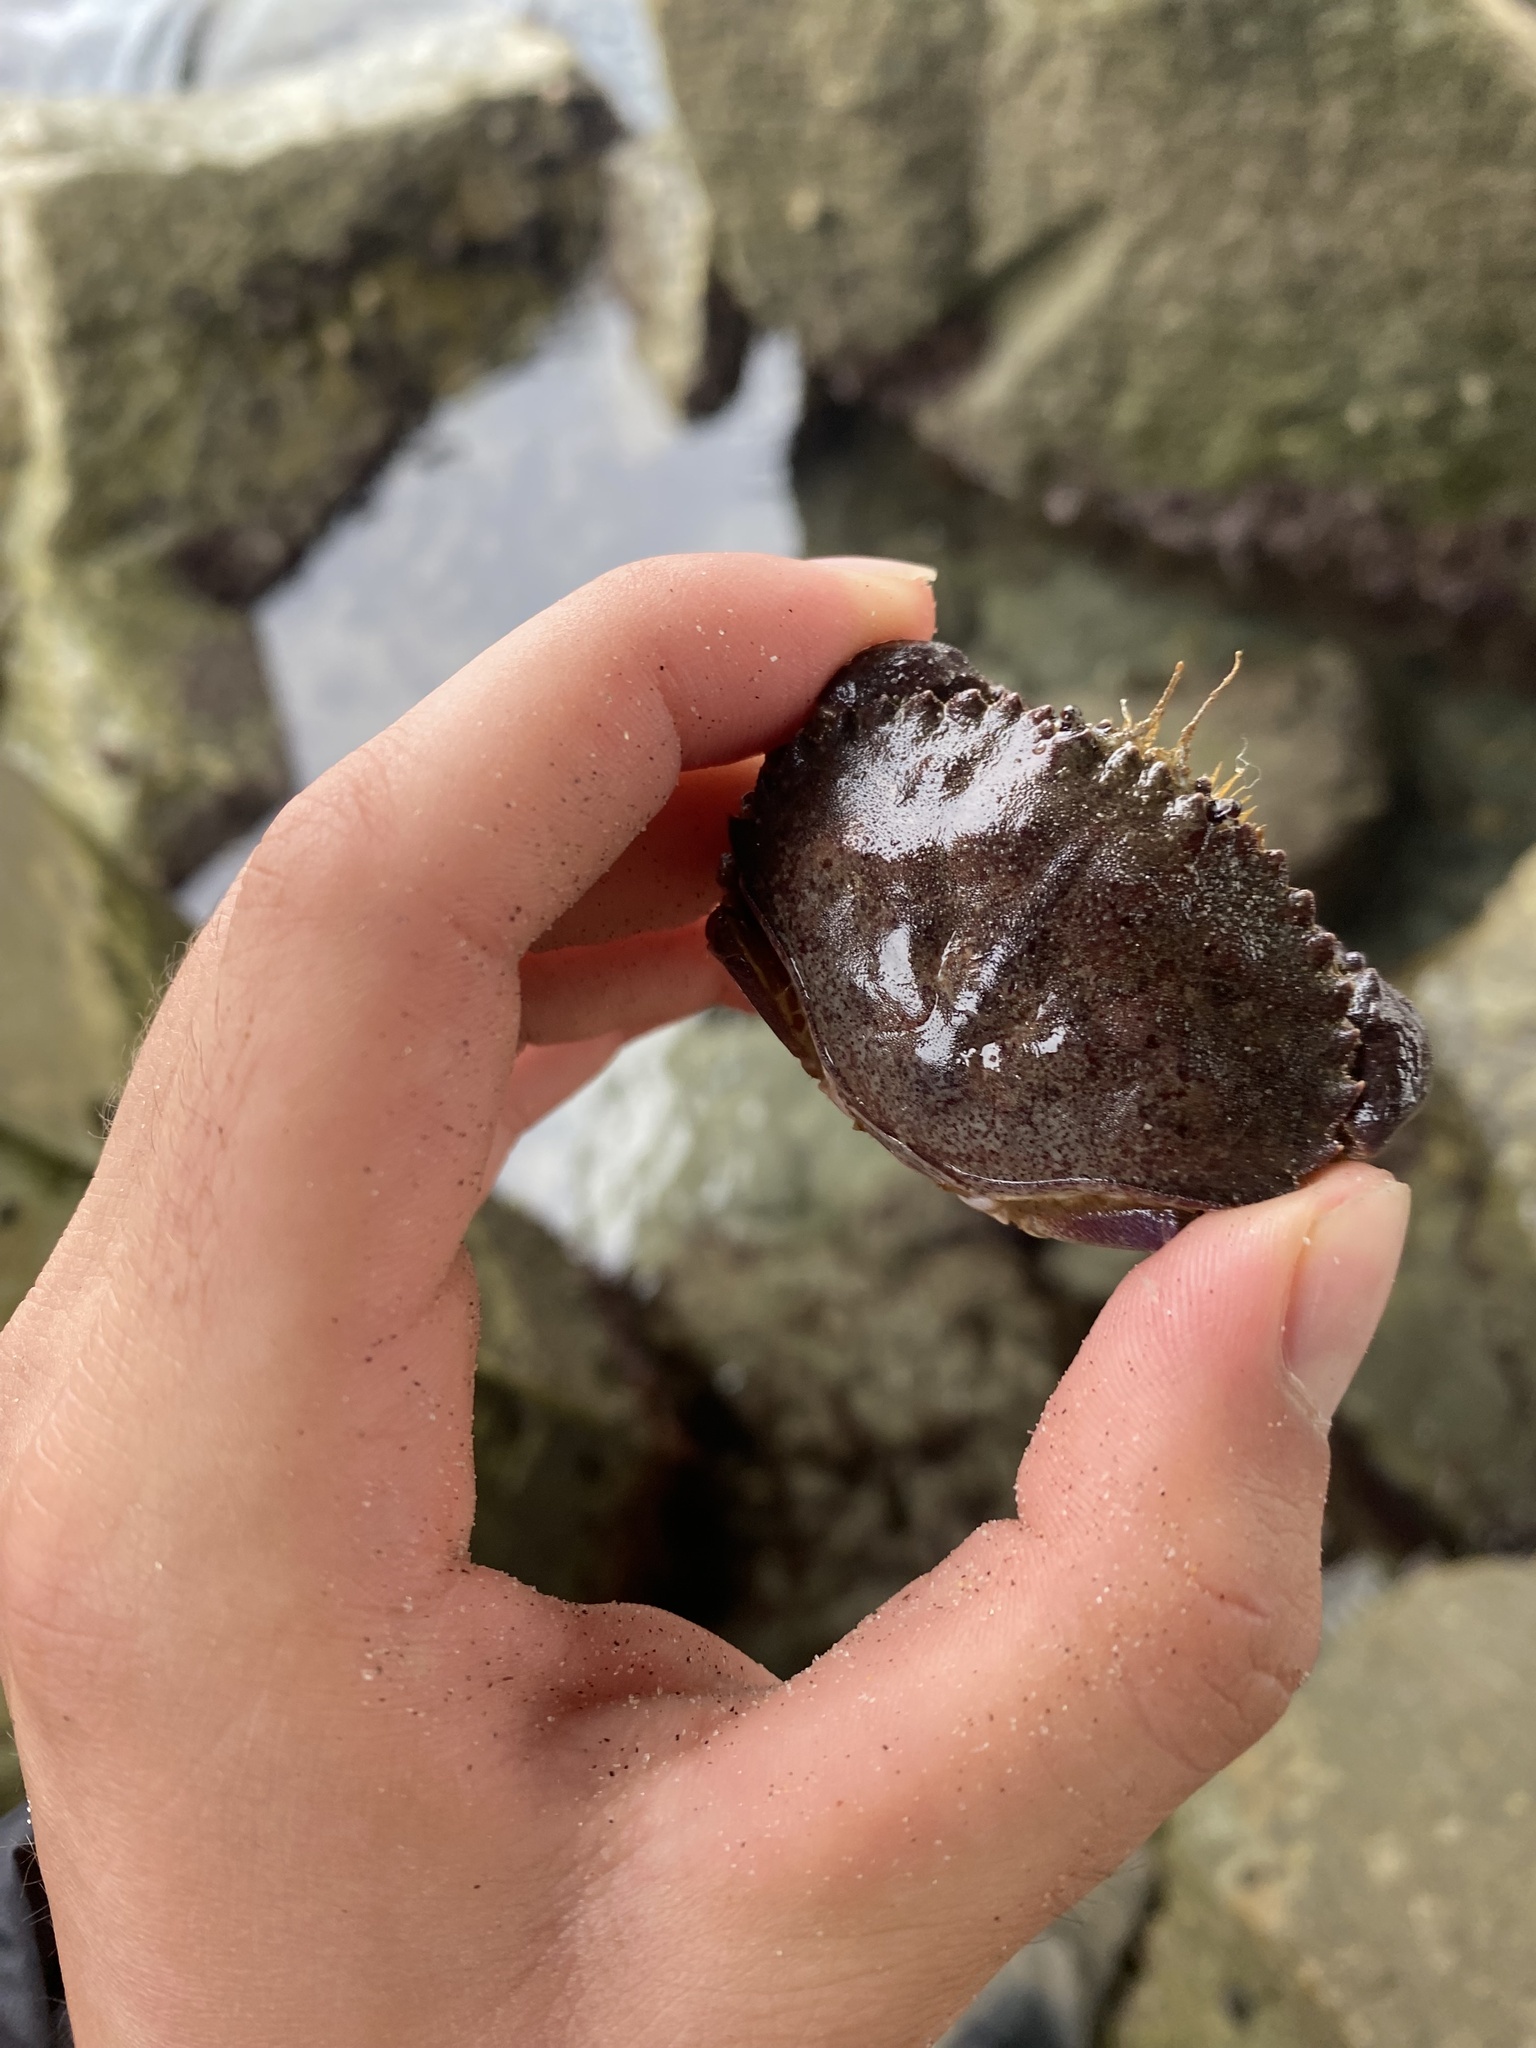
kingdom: Animalia
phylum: Arthropoda
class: Malacostraca
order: Decapoda
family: Cancridae
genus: Metacarcinus
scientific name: Metacarcinus anthonyi
